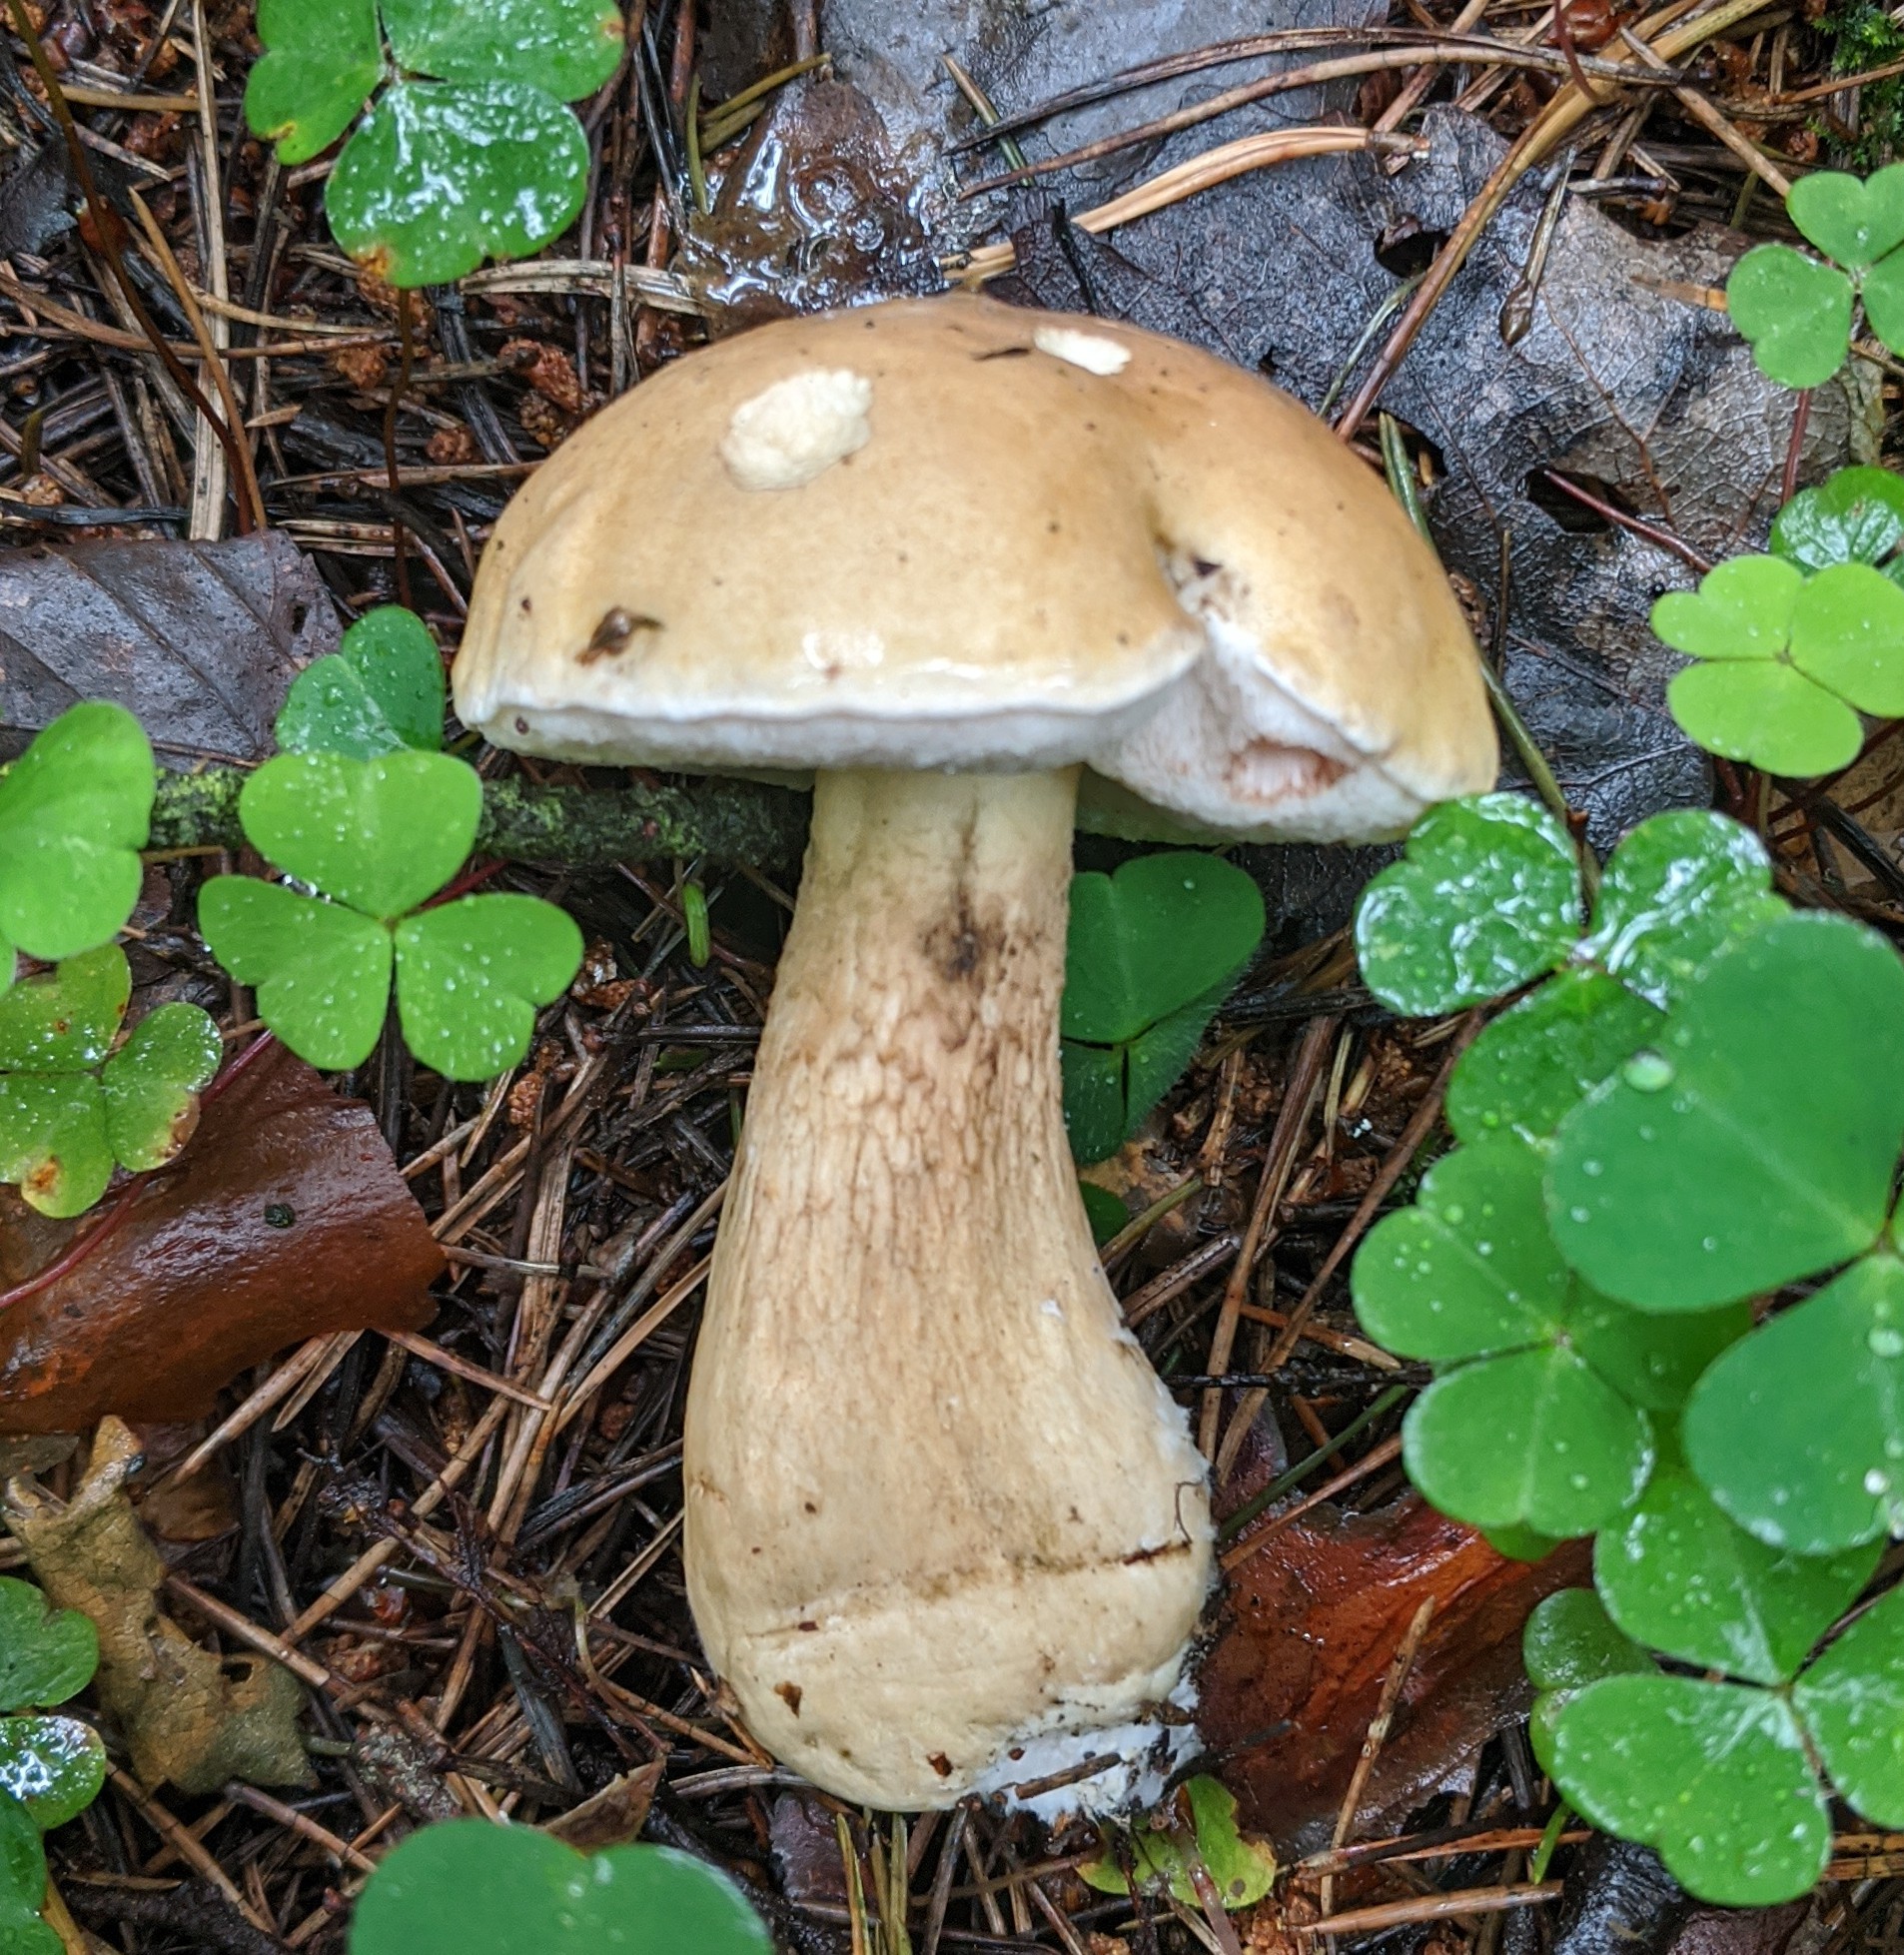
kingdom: Fungi
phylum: Basidiomycota
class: Agaricomycetes
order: Boletales
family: Boletaceae
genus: Tylopilus
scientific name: Tylopilus felleus
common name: Bitter bolete
